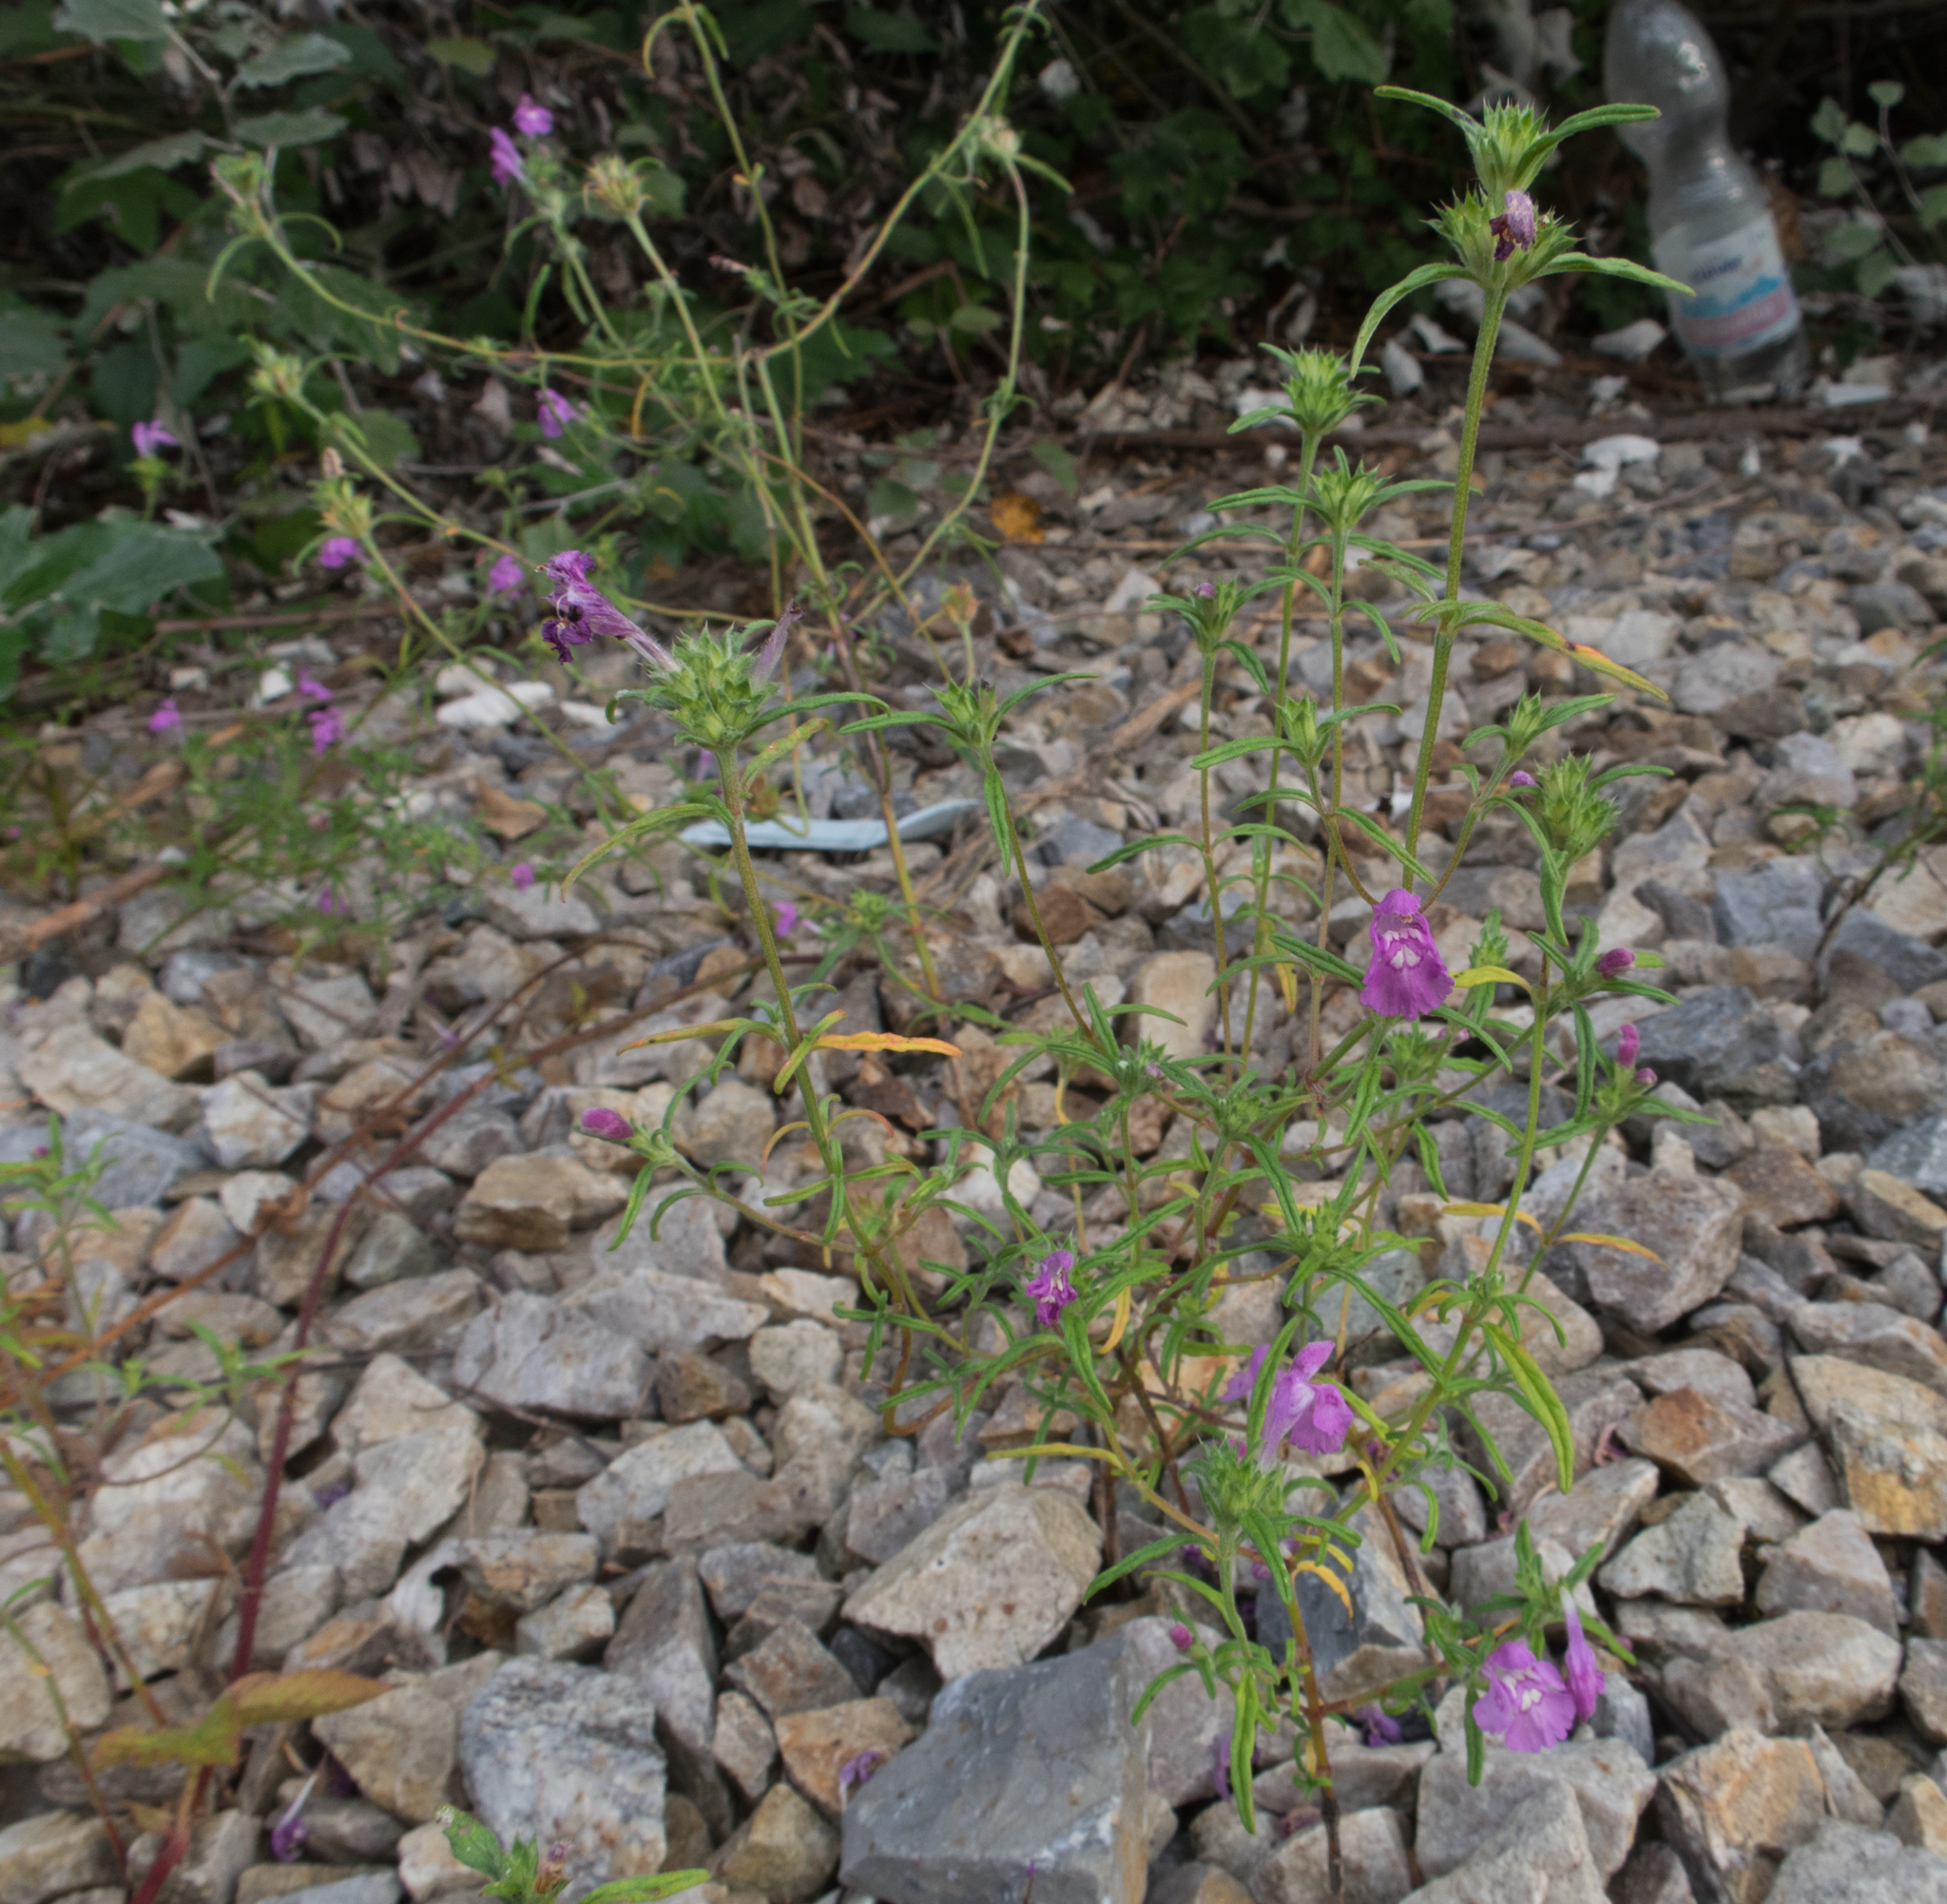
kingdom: Plantae
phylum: Tracheophyta
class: Magnoliopsida
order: Lamiales
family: Lamiaceae
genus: Galeopsis
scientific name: Galeopsis angustifolia
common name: Red hemp-nettle
